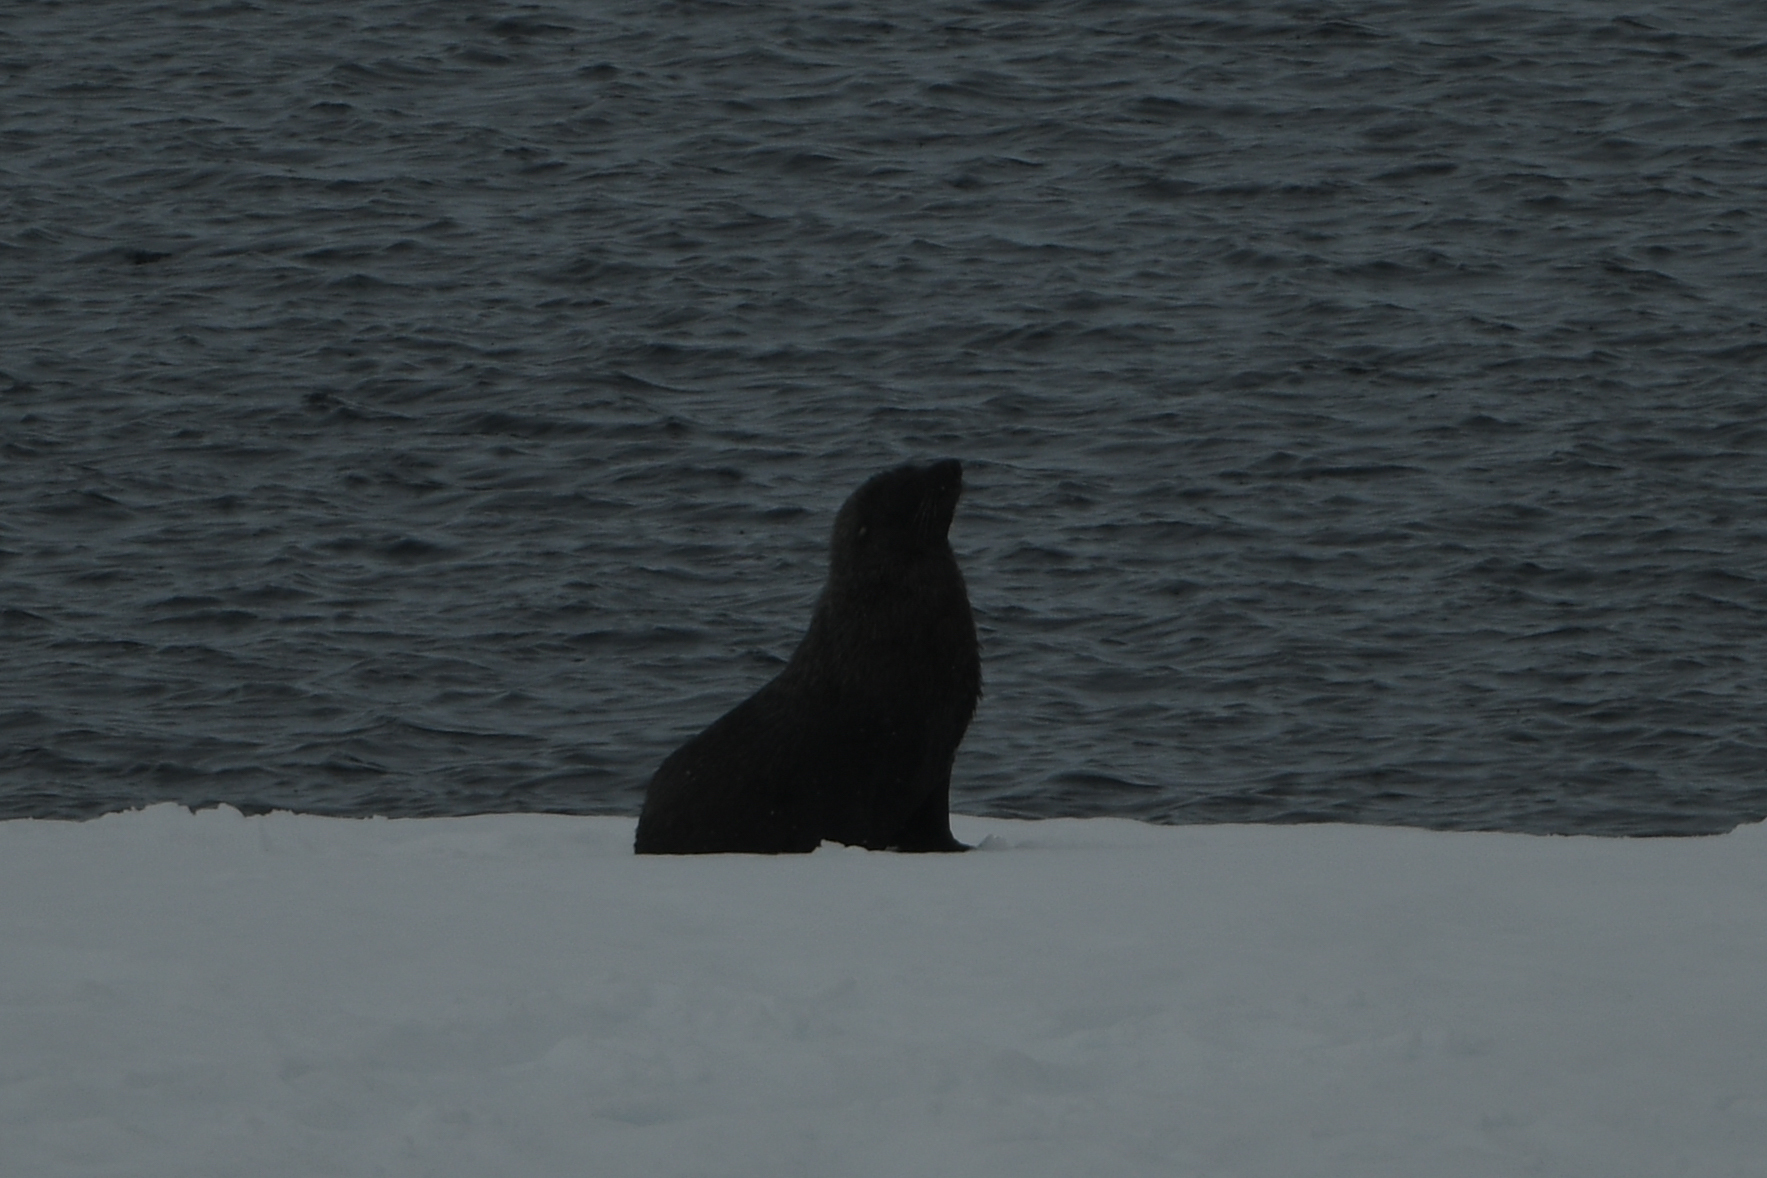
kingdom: Animalia
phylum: Chordata
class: Mammalia
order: Carnivora
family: Otariidae
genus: Arctocephalus
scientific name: Arctocephalus gazella
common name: Antarctic fur seal
